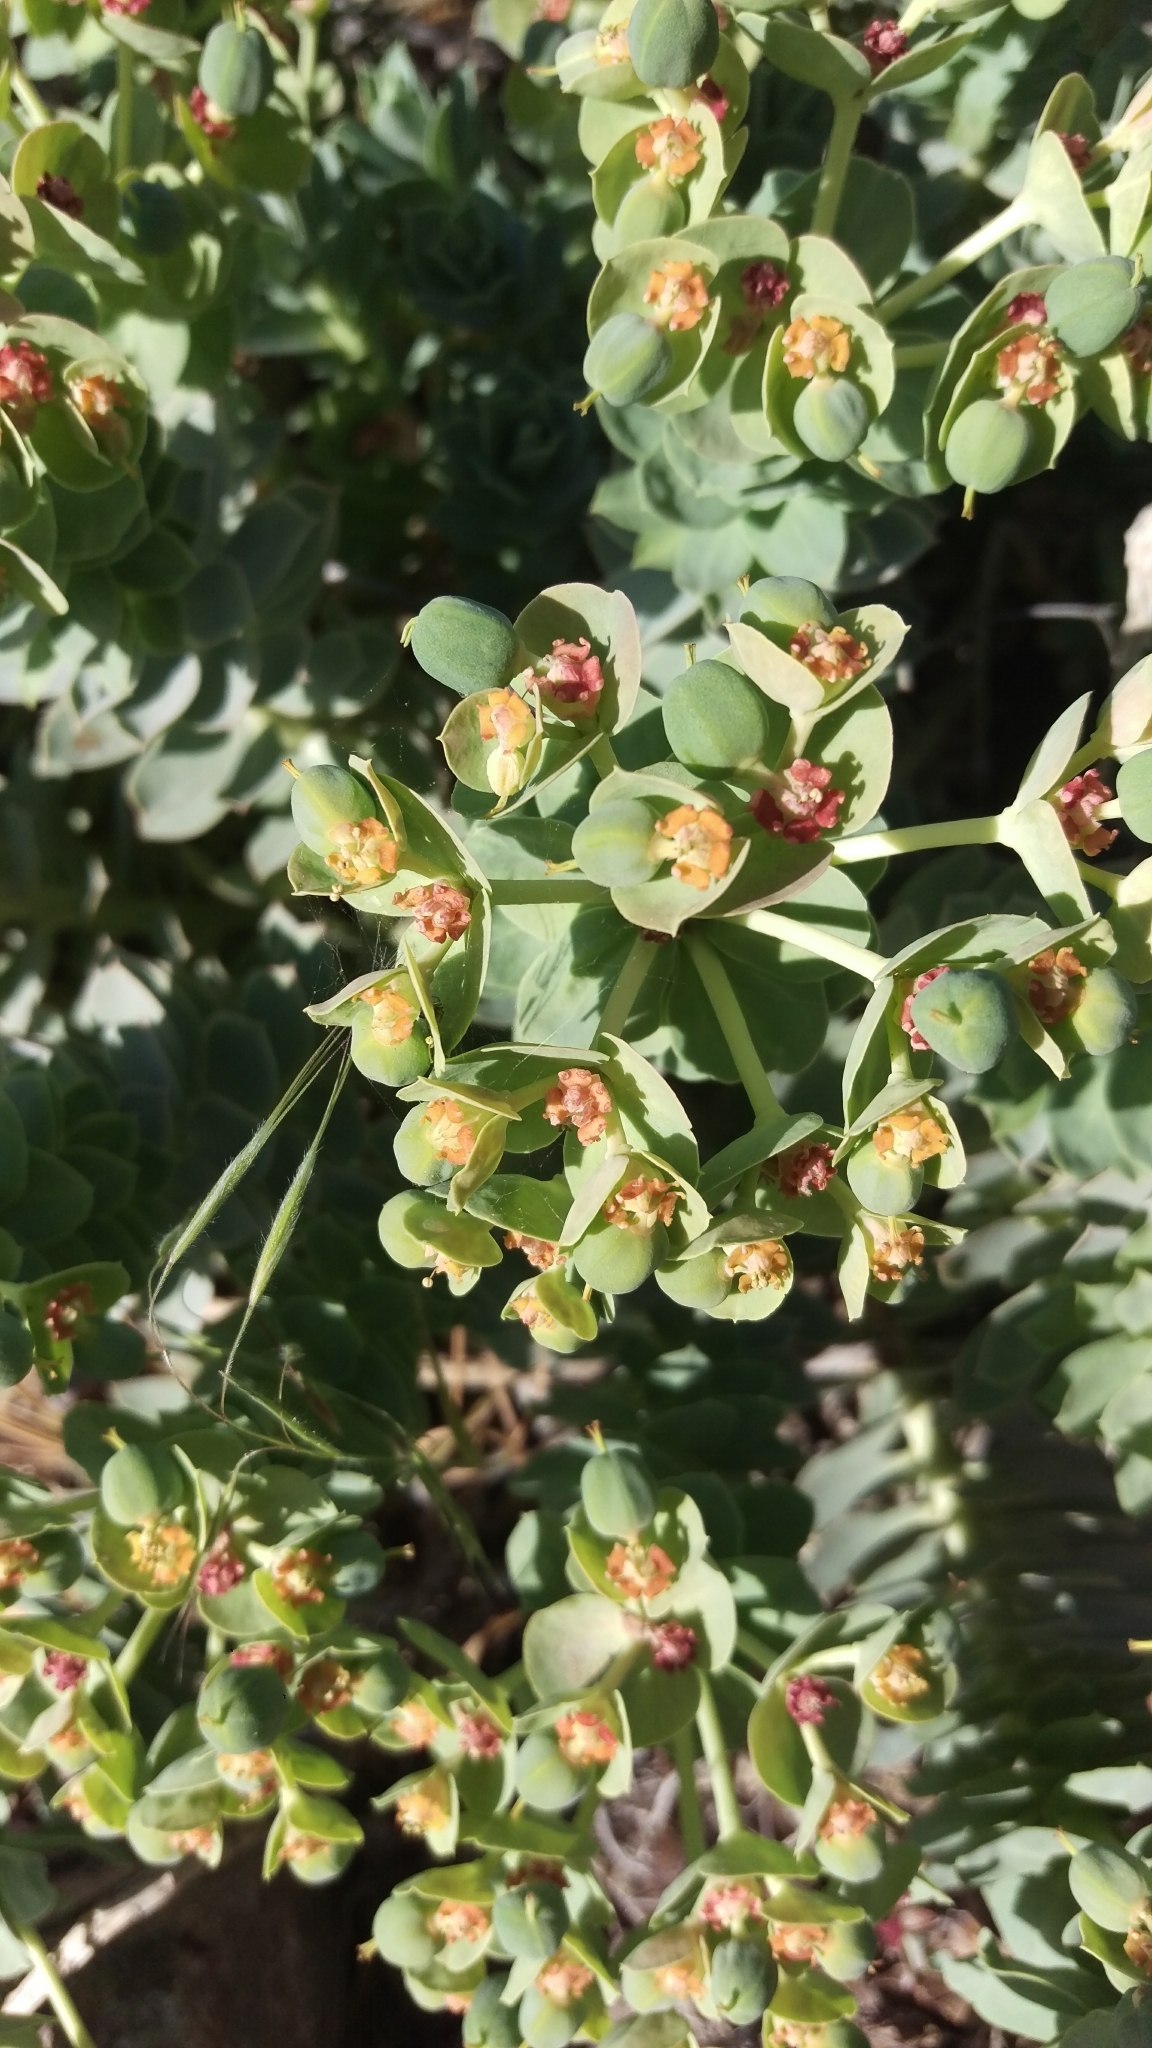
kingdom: Plantae
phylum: Tracheophyta
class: Magnoliopsida
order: Malpighiales
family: Euphorbiaceae
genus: Euphorbia
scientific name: Euphorbia myrsinites
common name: Myrtle spurge
